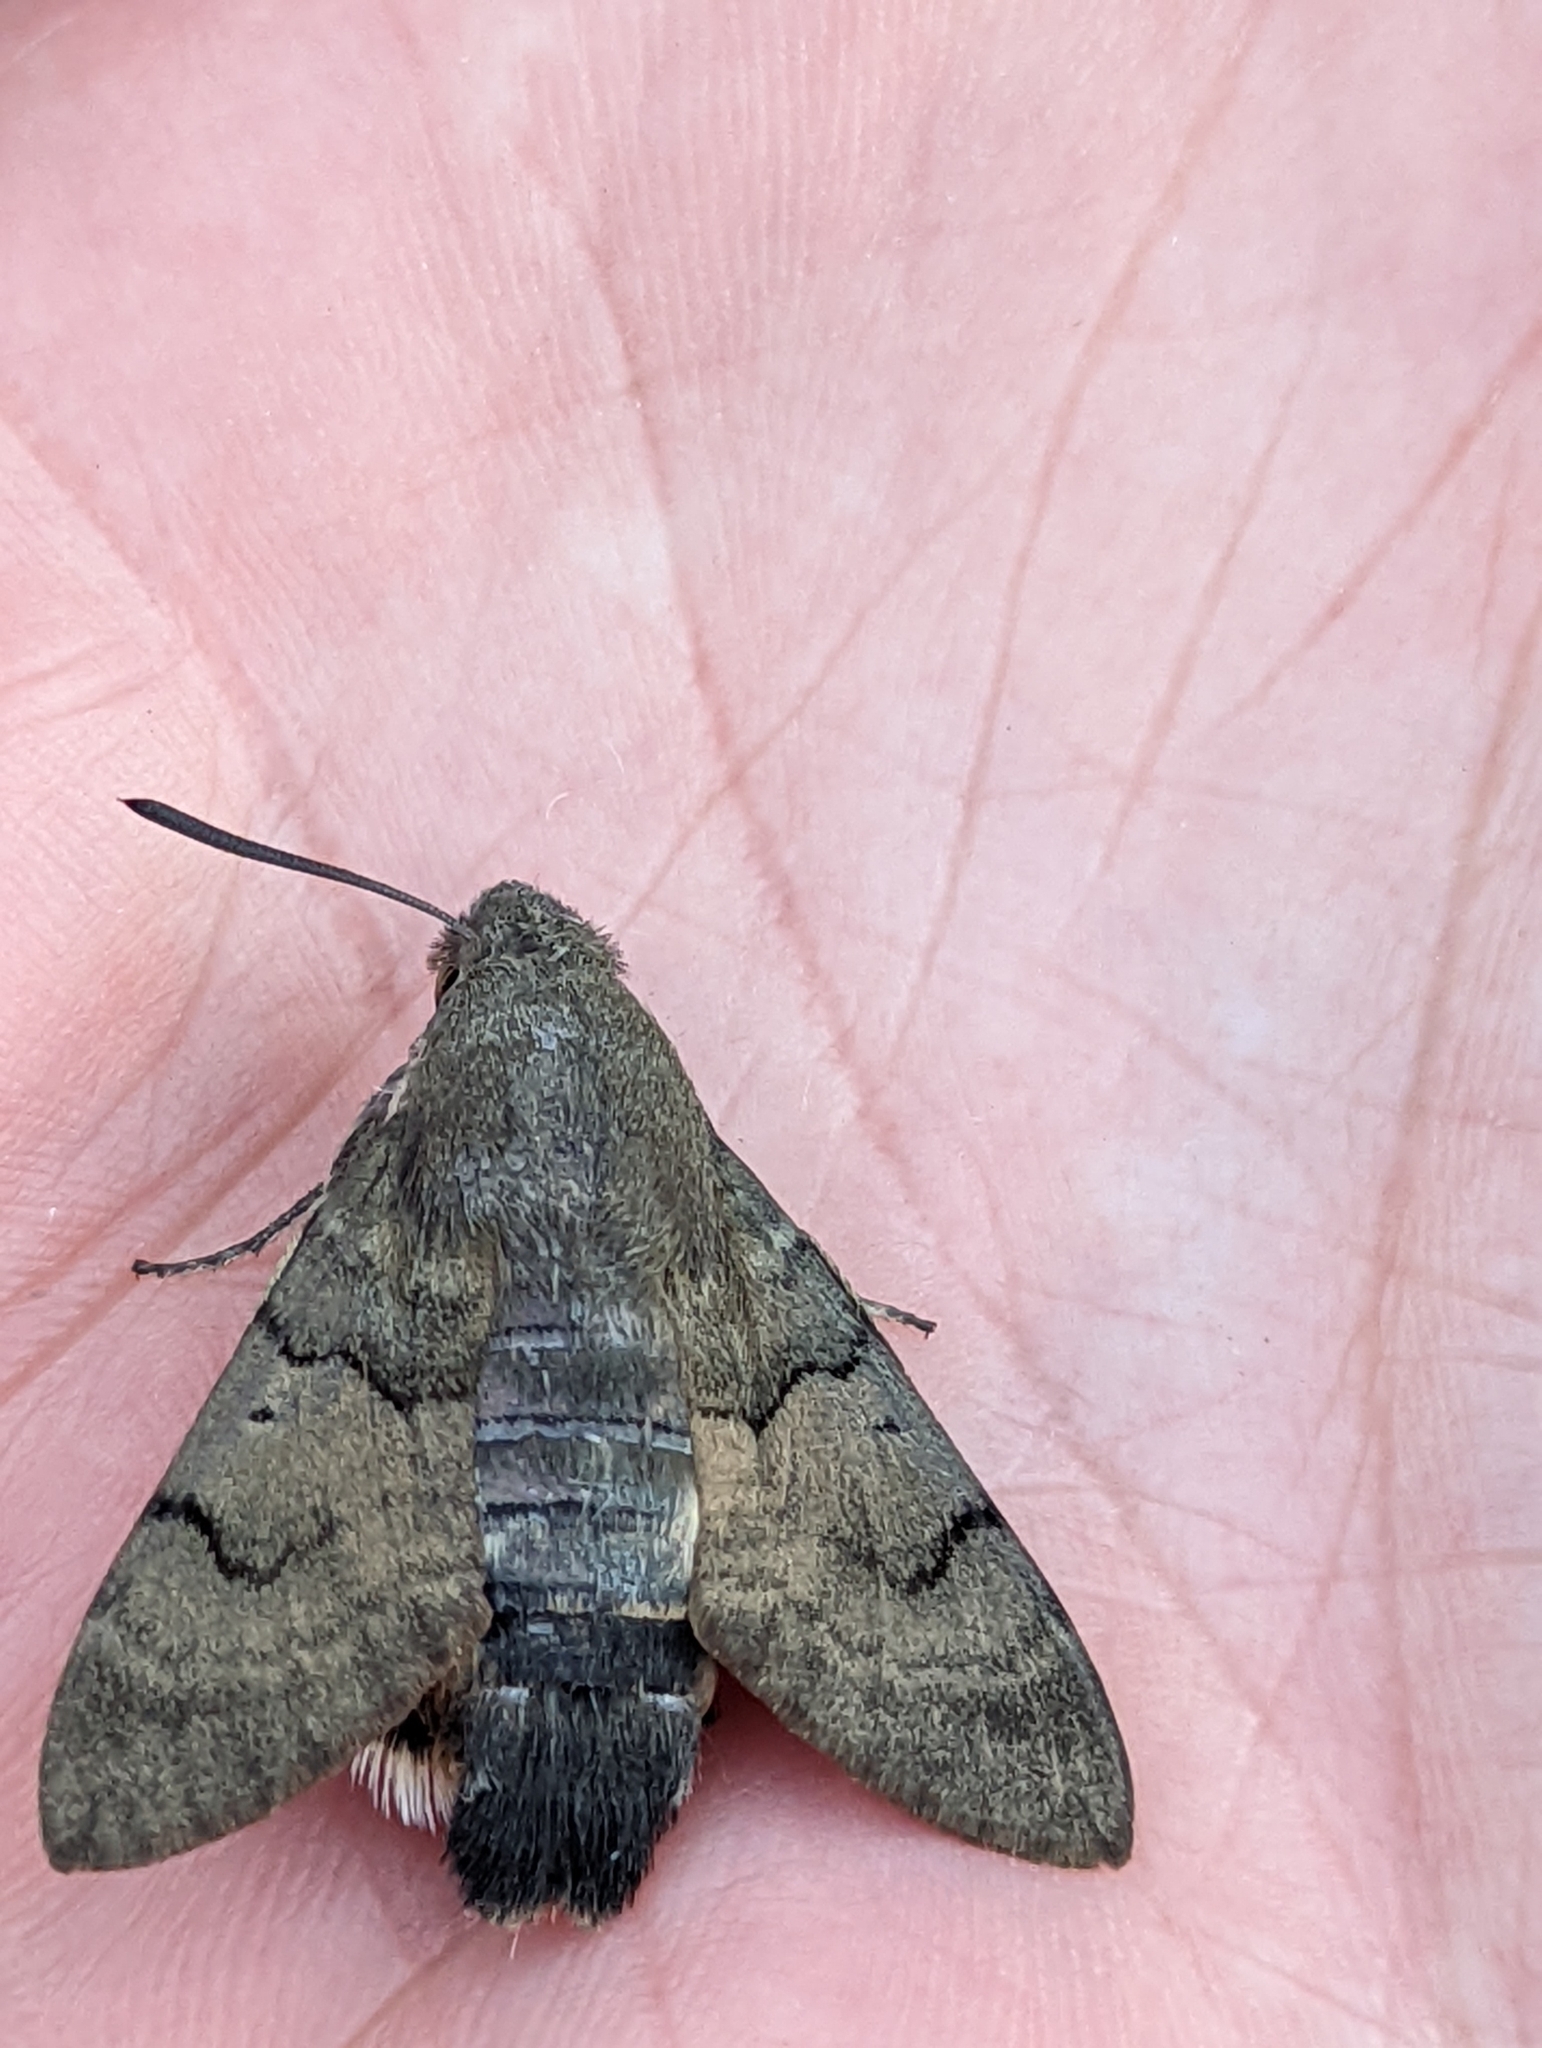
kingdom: Animalia
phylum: Arthropoda
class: Insecta
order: Lepidoptera
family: Sphingidae
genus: Macroglossum
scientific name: Macroglossum stellatarum
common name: Humming-bird hawk-moth
